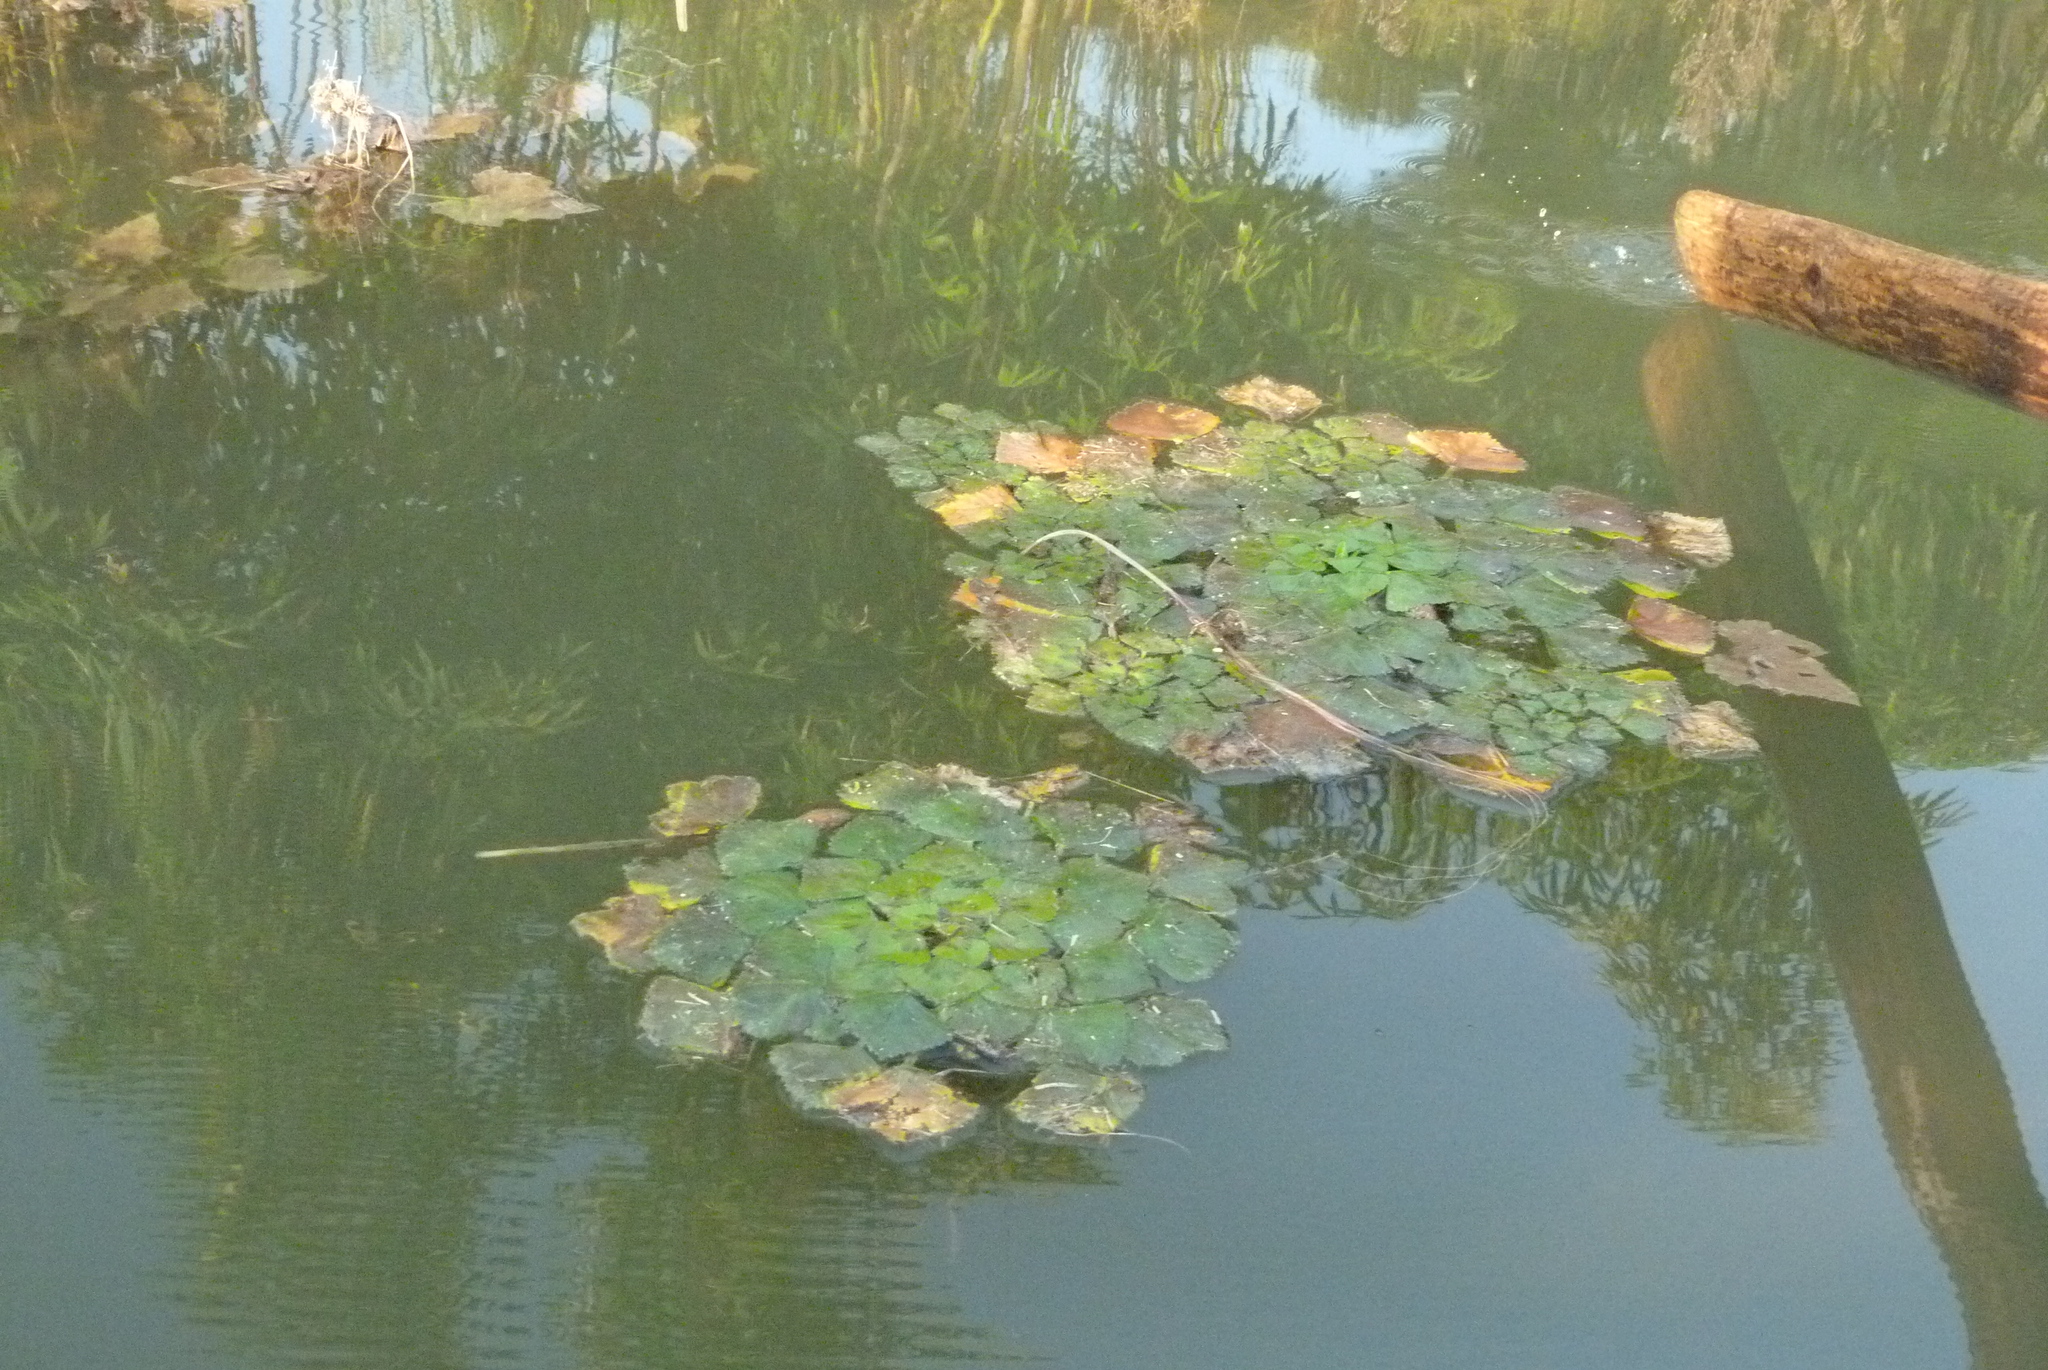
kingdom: Plantae
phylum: Tracheophyta
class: Magnoliopsida
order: Myrtales
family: Lythraceae
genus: Trapa
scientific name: Trapa natans
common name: Water chestnut
